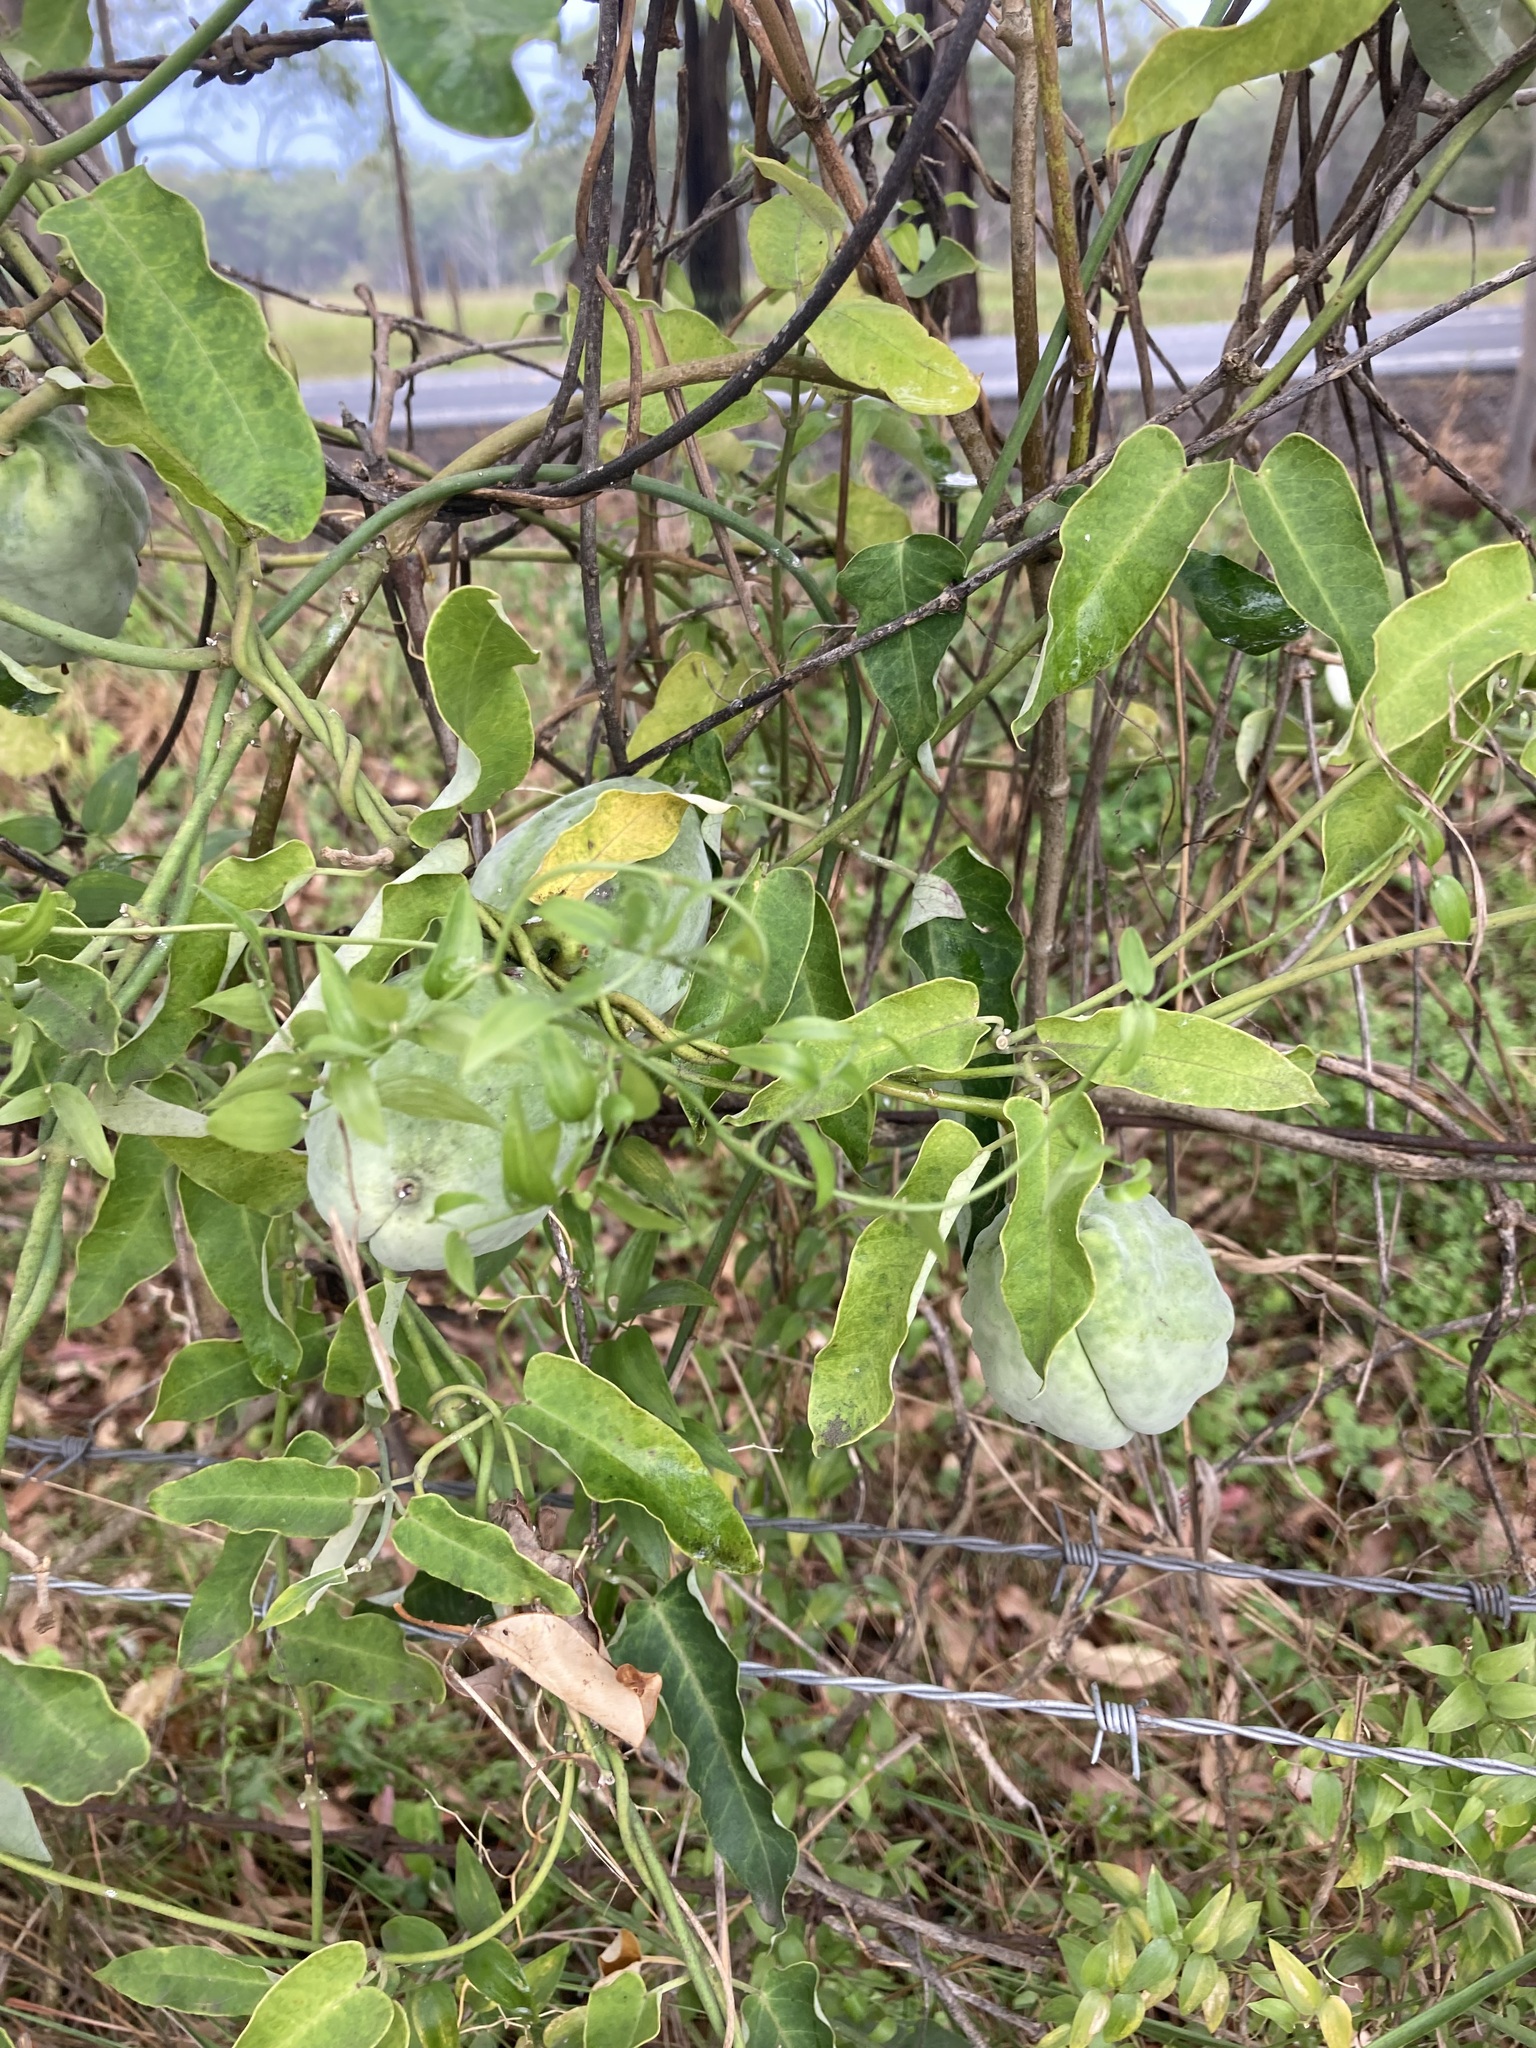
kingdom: Plantae
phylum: Tracheophyta
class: Magnoliopsida
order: Gentianales
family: Apocynaceae
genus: Araujia
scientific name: Araujia sericifera
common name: White bladderflower
